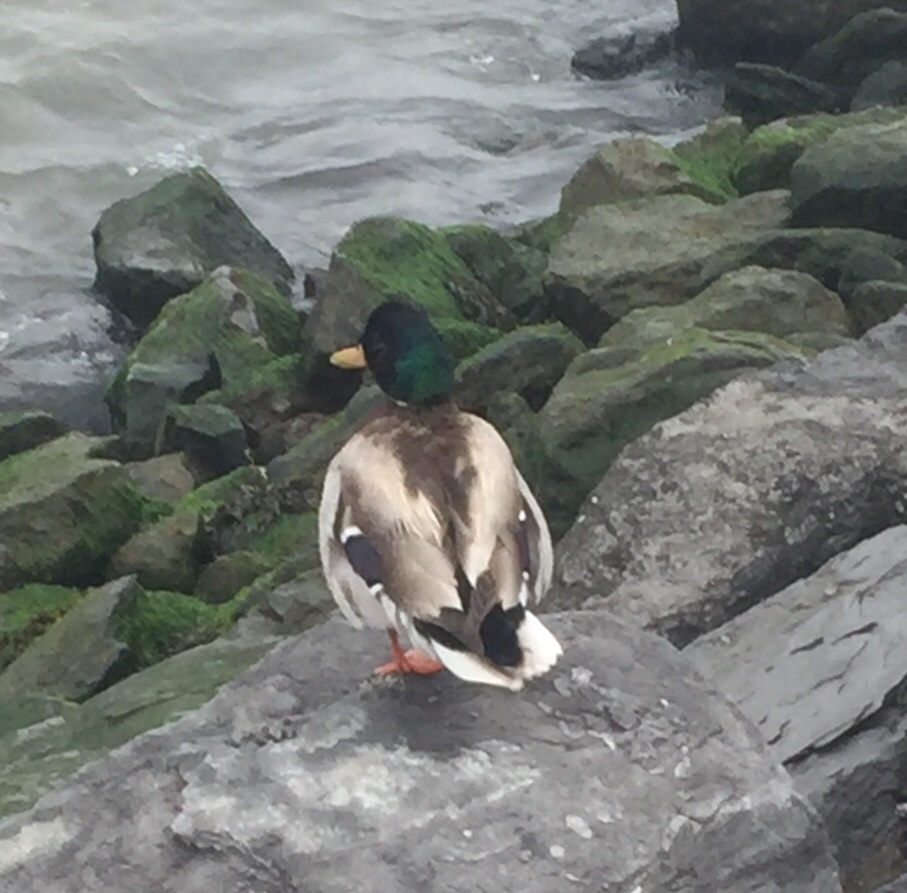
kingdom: Animalia
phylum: Chordata
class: Aves
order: Anseriformes
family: Anatidae
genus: Anas
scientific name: Anas platyrhynchos
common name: Mallard
